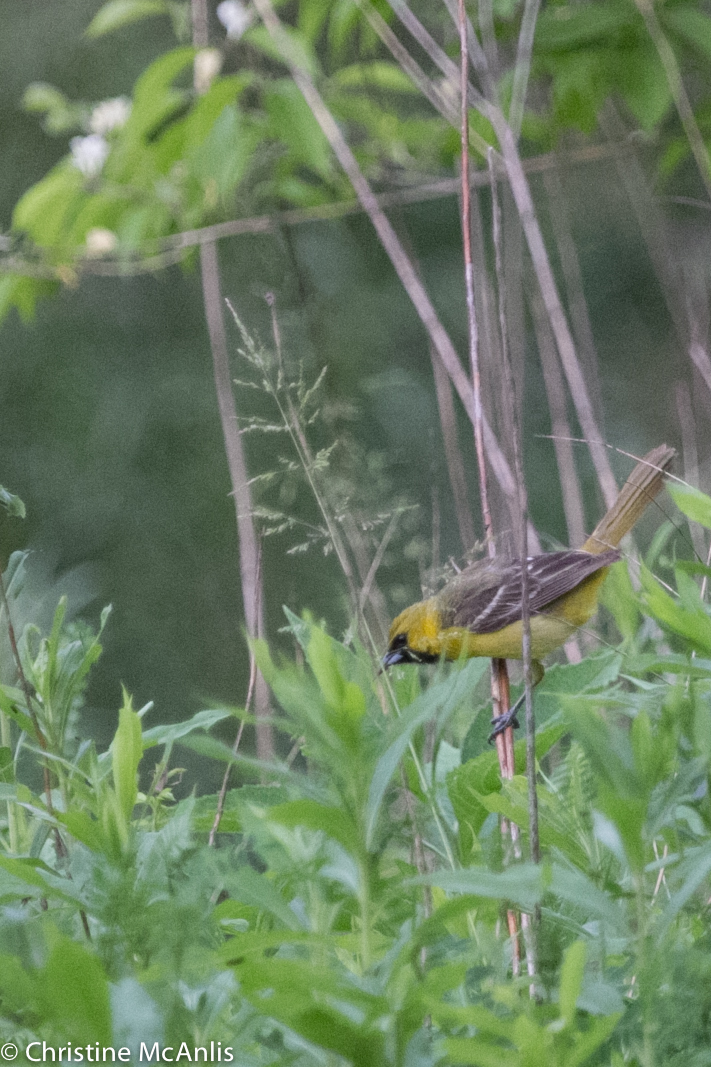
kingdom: Animalia
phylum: Chordata
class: Aves
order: Passeriformes
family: Icteridae
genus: Icterus
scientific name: Icterus spurius
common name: Orchard oriole
